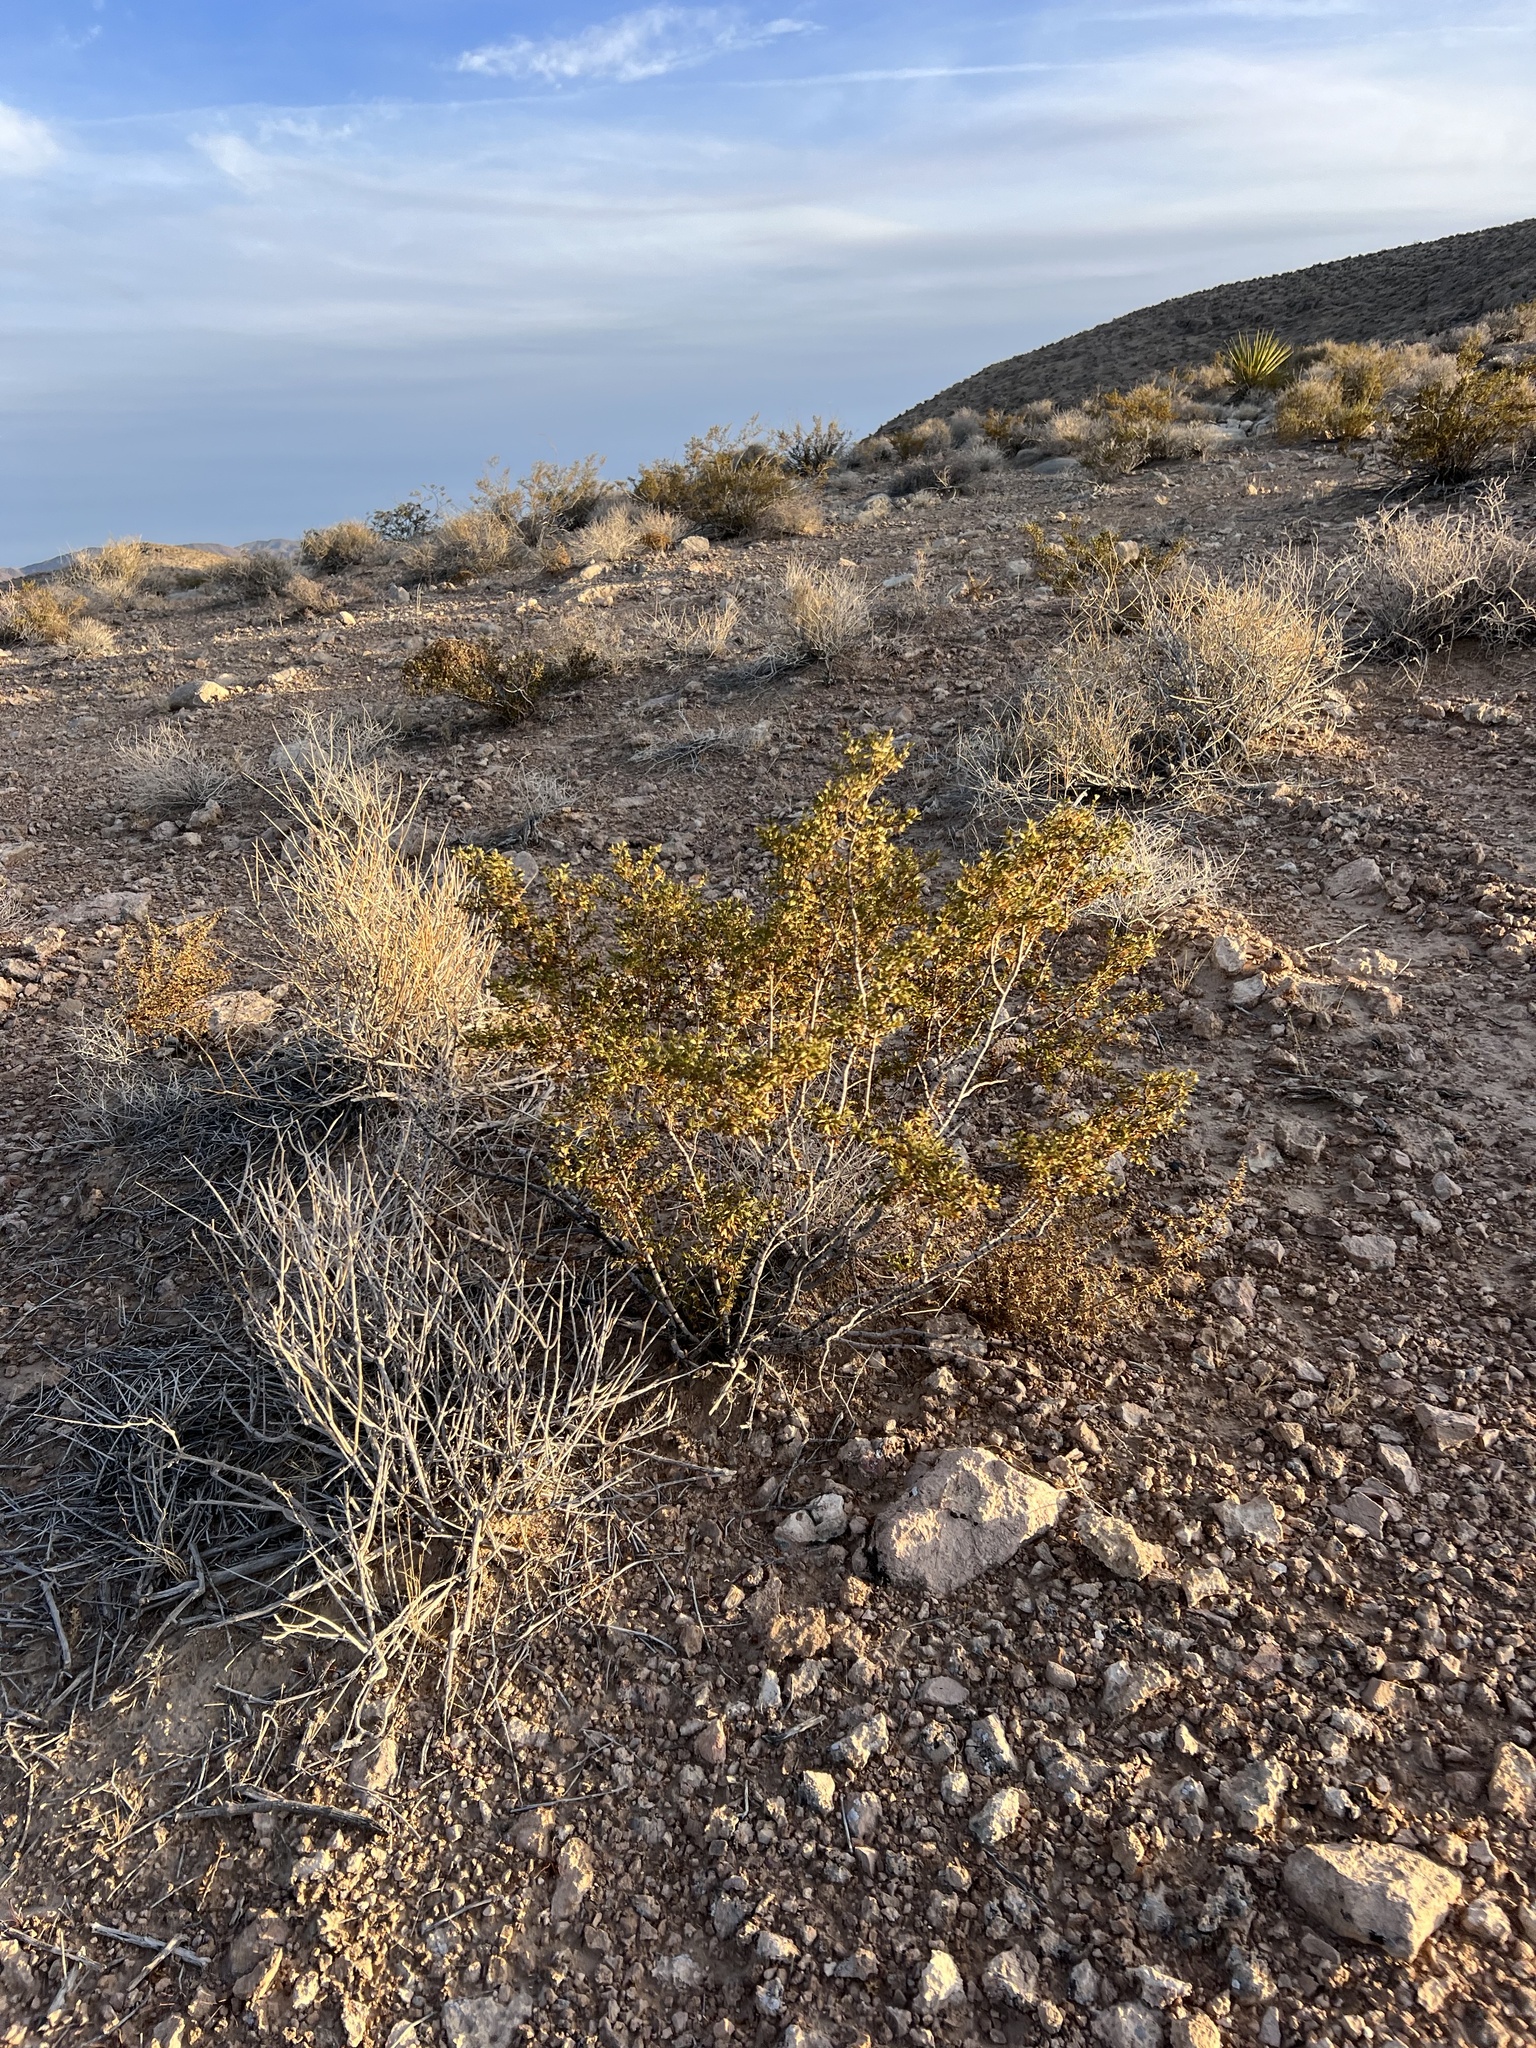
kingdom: Plantae
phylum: Tracheophyta
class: Magnoliopsida
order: Zygophyllales
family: Zygophyllaceae
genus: Larrea
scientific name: Larrea tridentata
